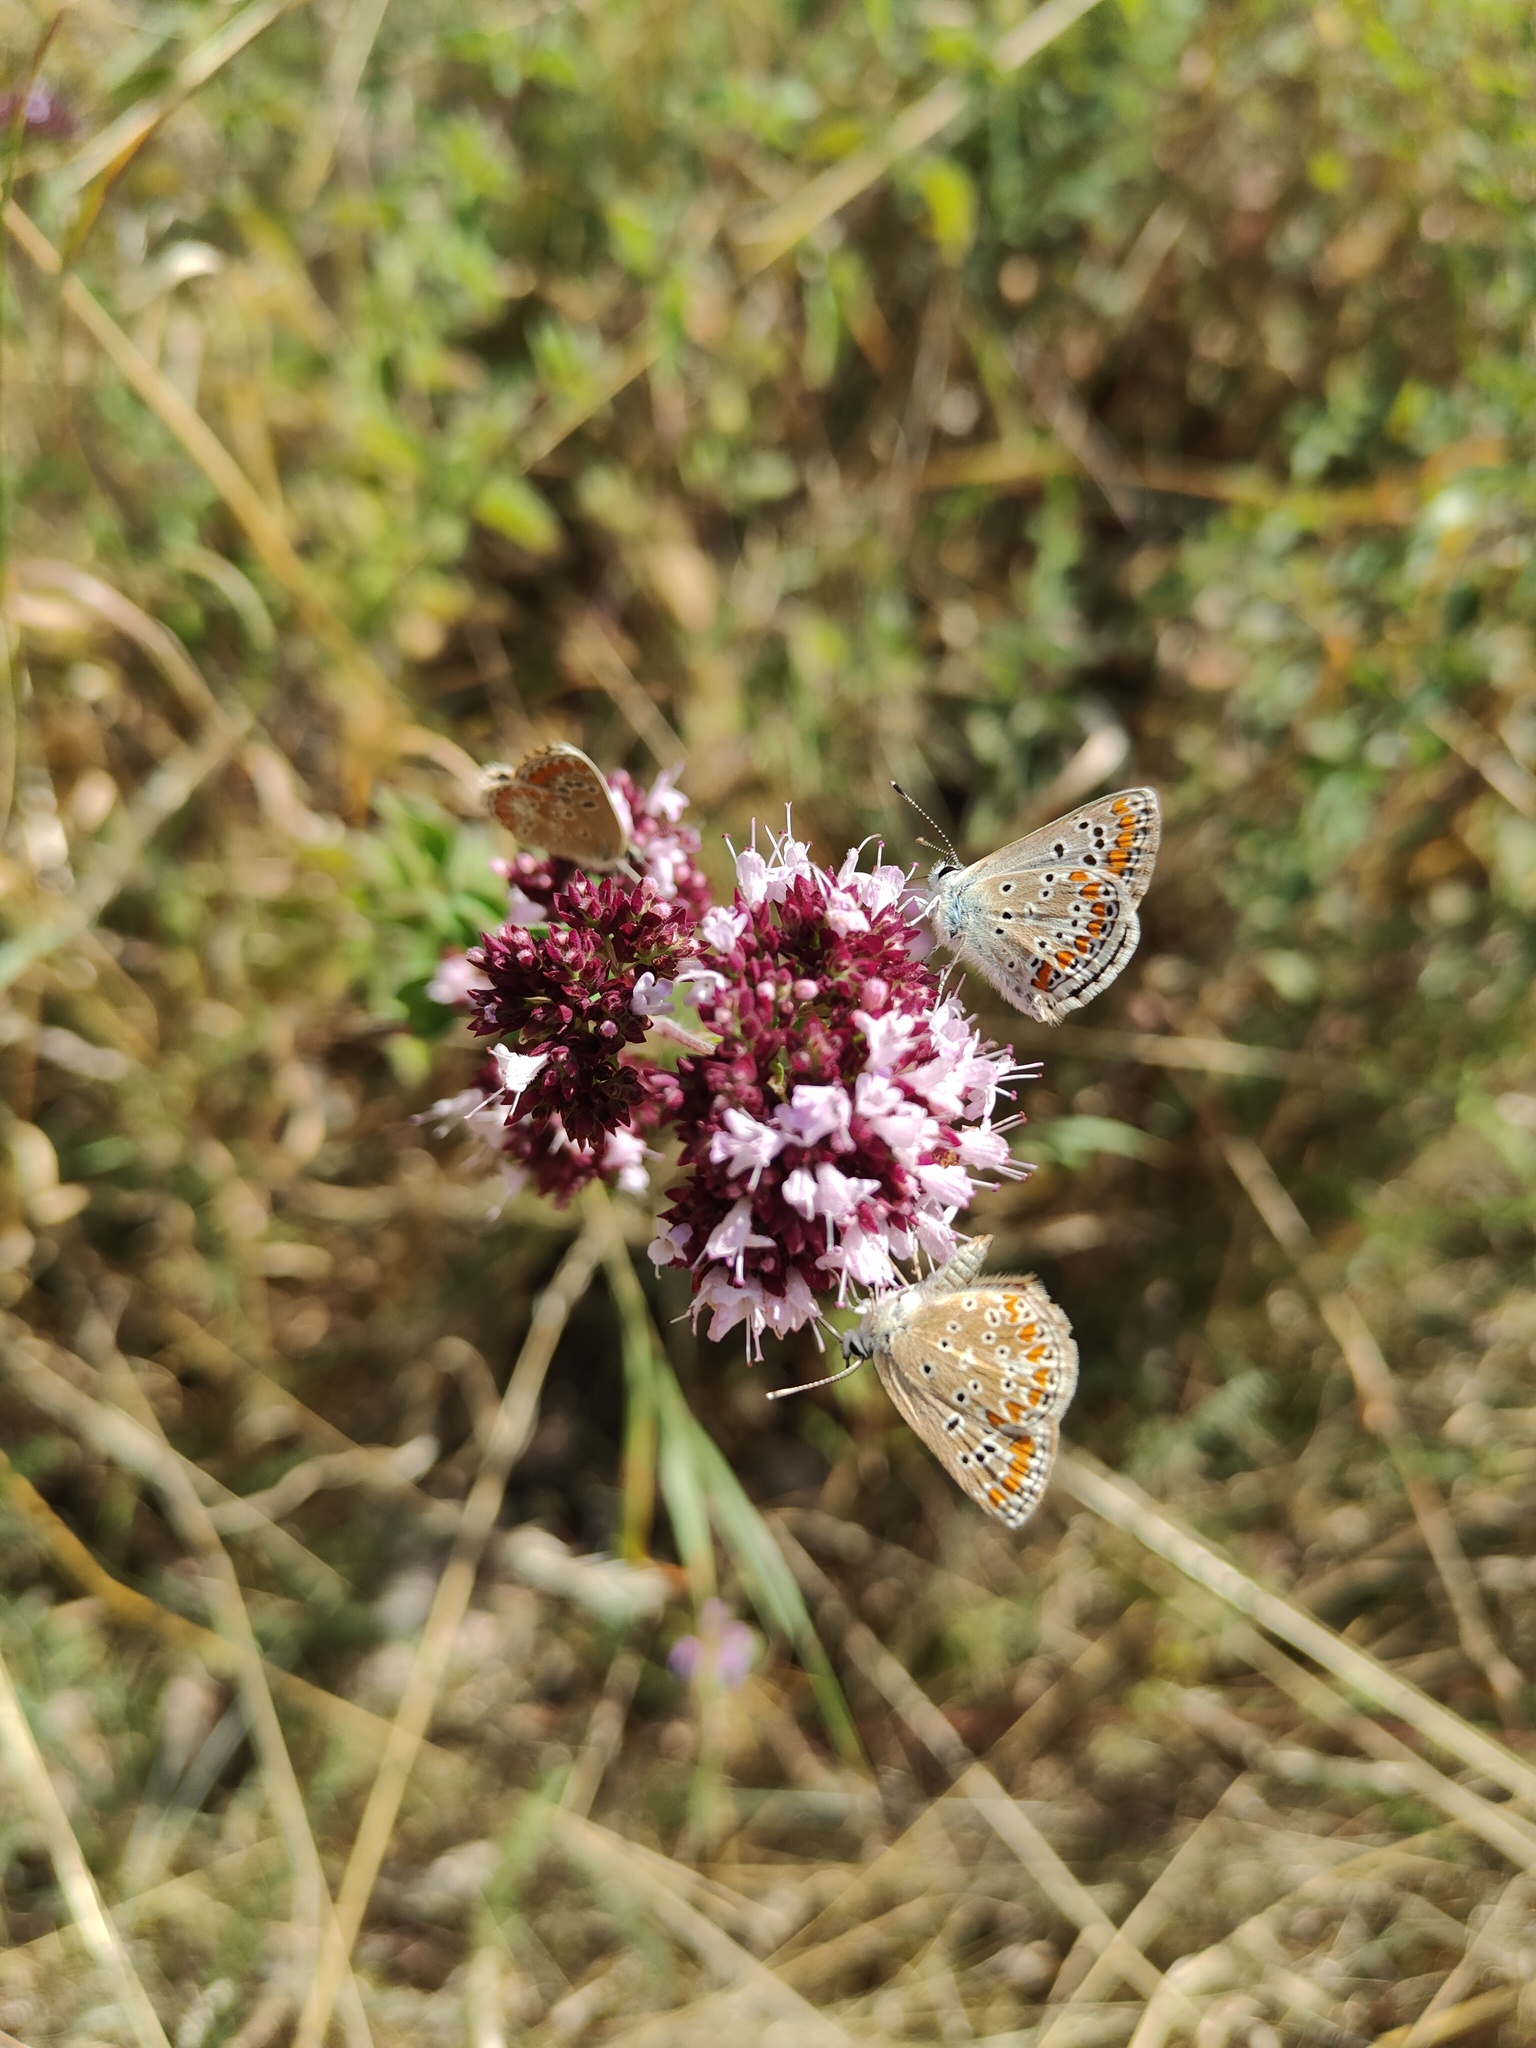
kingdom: Animalia
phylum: Arthropoda
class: Insecta
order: Lepidoptera
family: Lycaenidae
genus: Aricia
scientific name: Aricia agestis
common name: Brown argus
